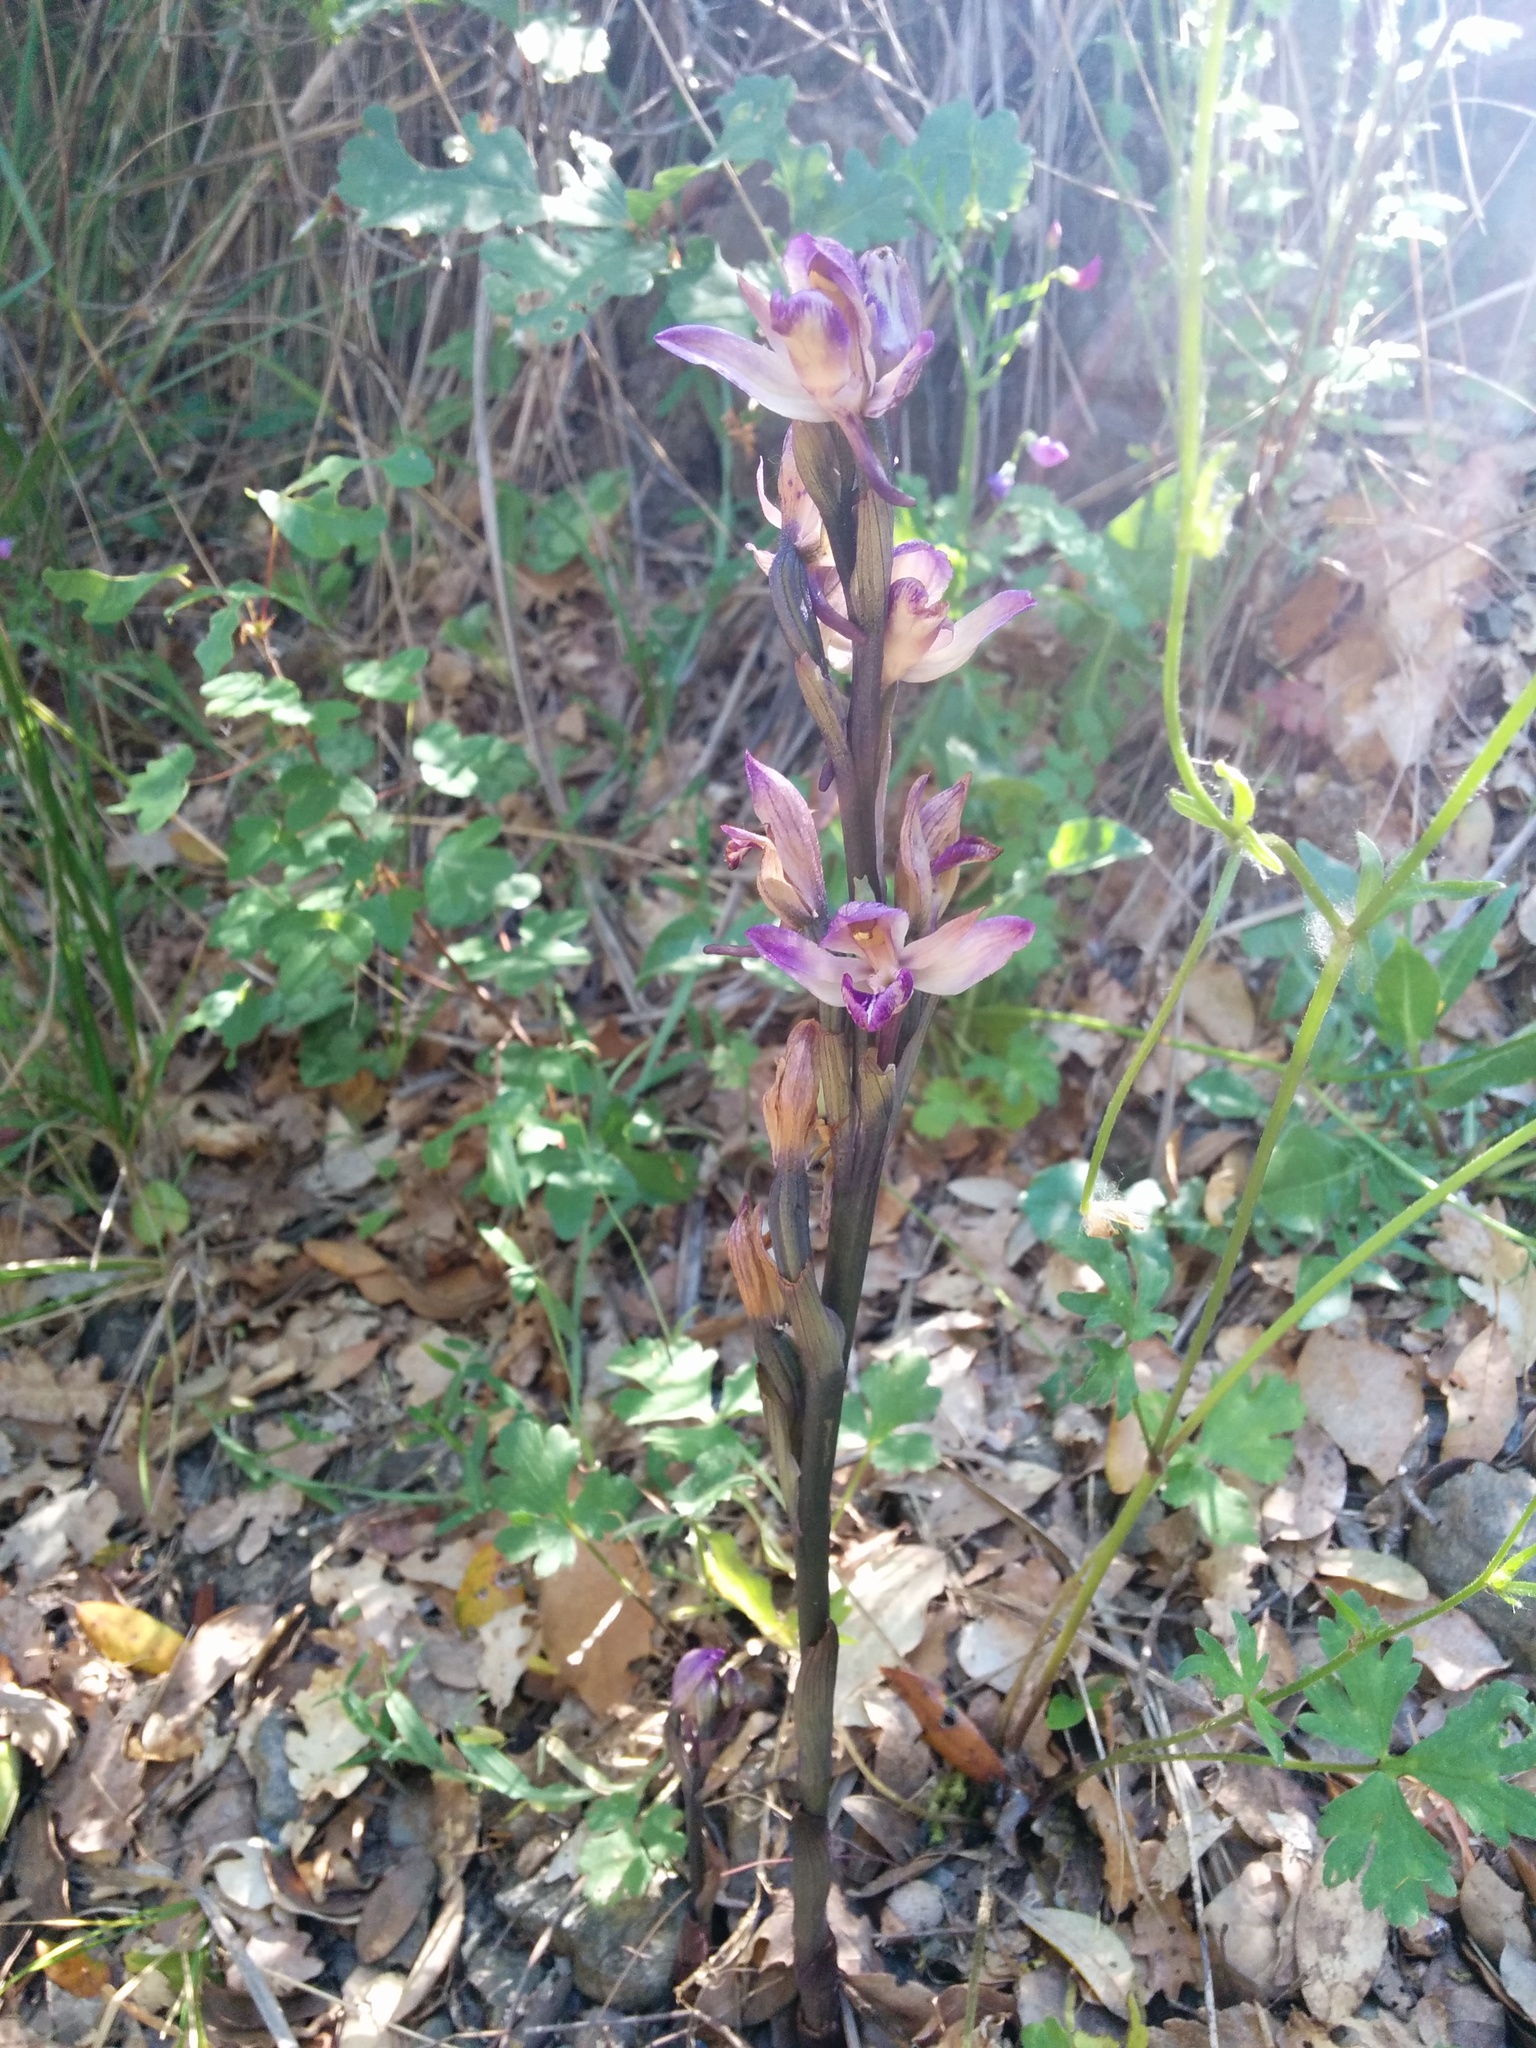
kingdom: Plantae
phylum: Tracheophyta
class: Liliopsida
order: Asparagales
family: Orchidaceae
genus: Limodorum
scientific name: Limodorum abortivum
